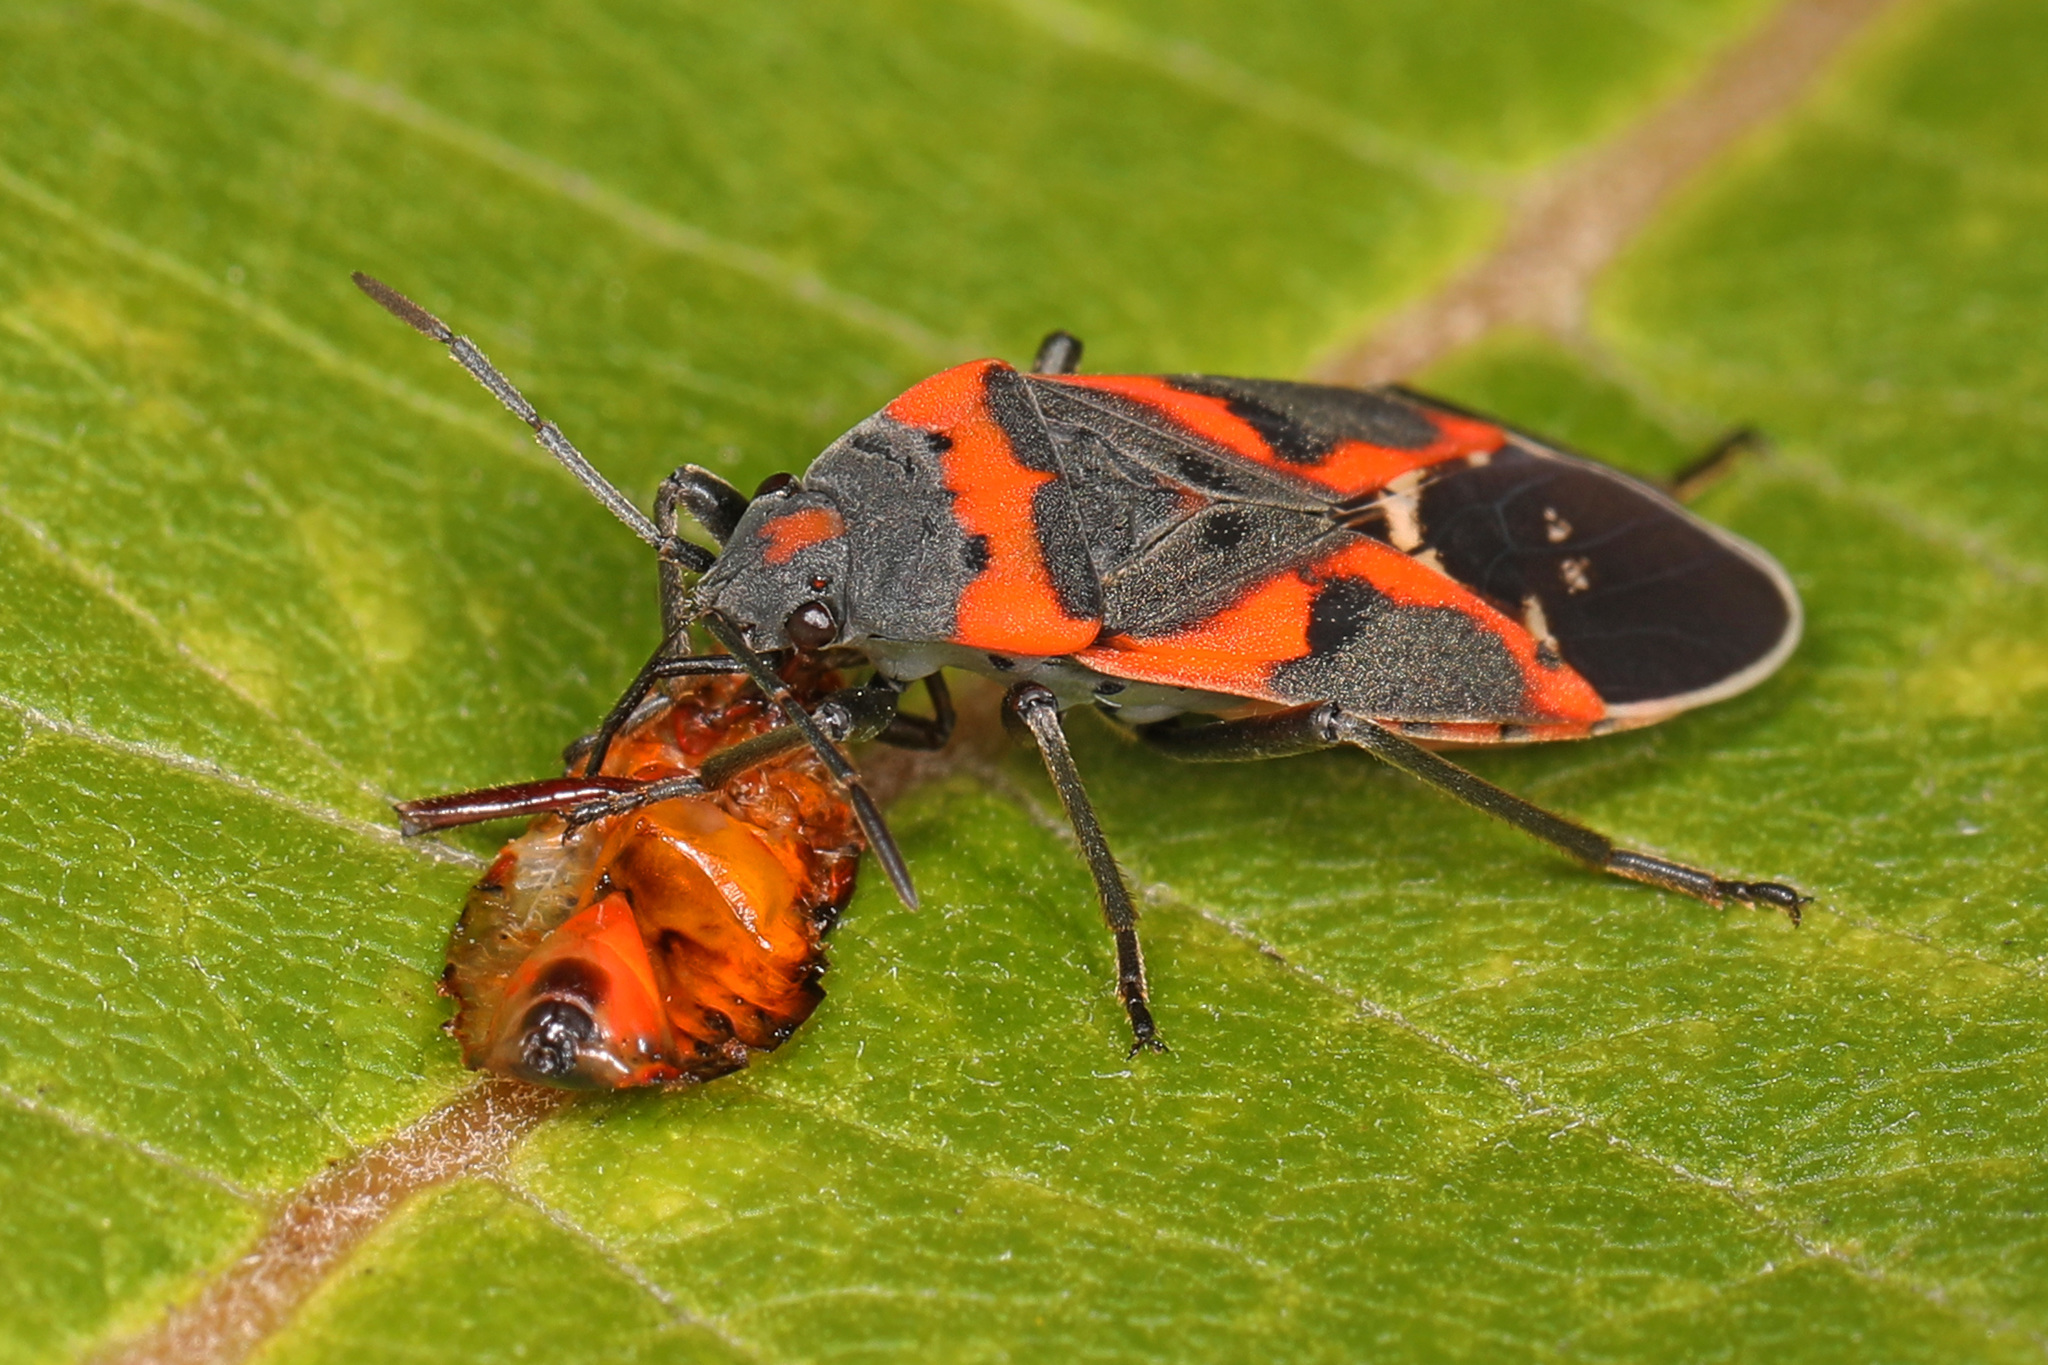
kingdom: Animalia
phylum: Arthropoda
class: Insecta
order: Hemiptera
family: Lygaeidae
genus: Lygaeus
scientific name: Lygaeus kalmii
